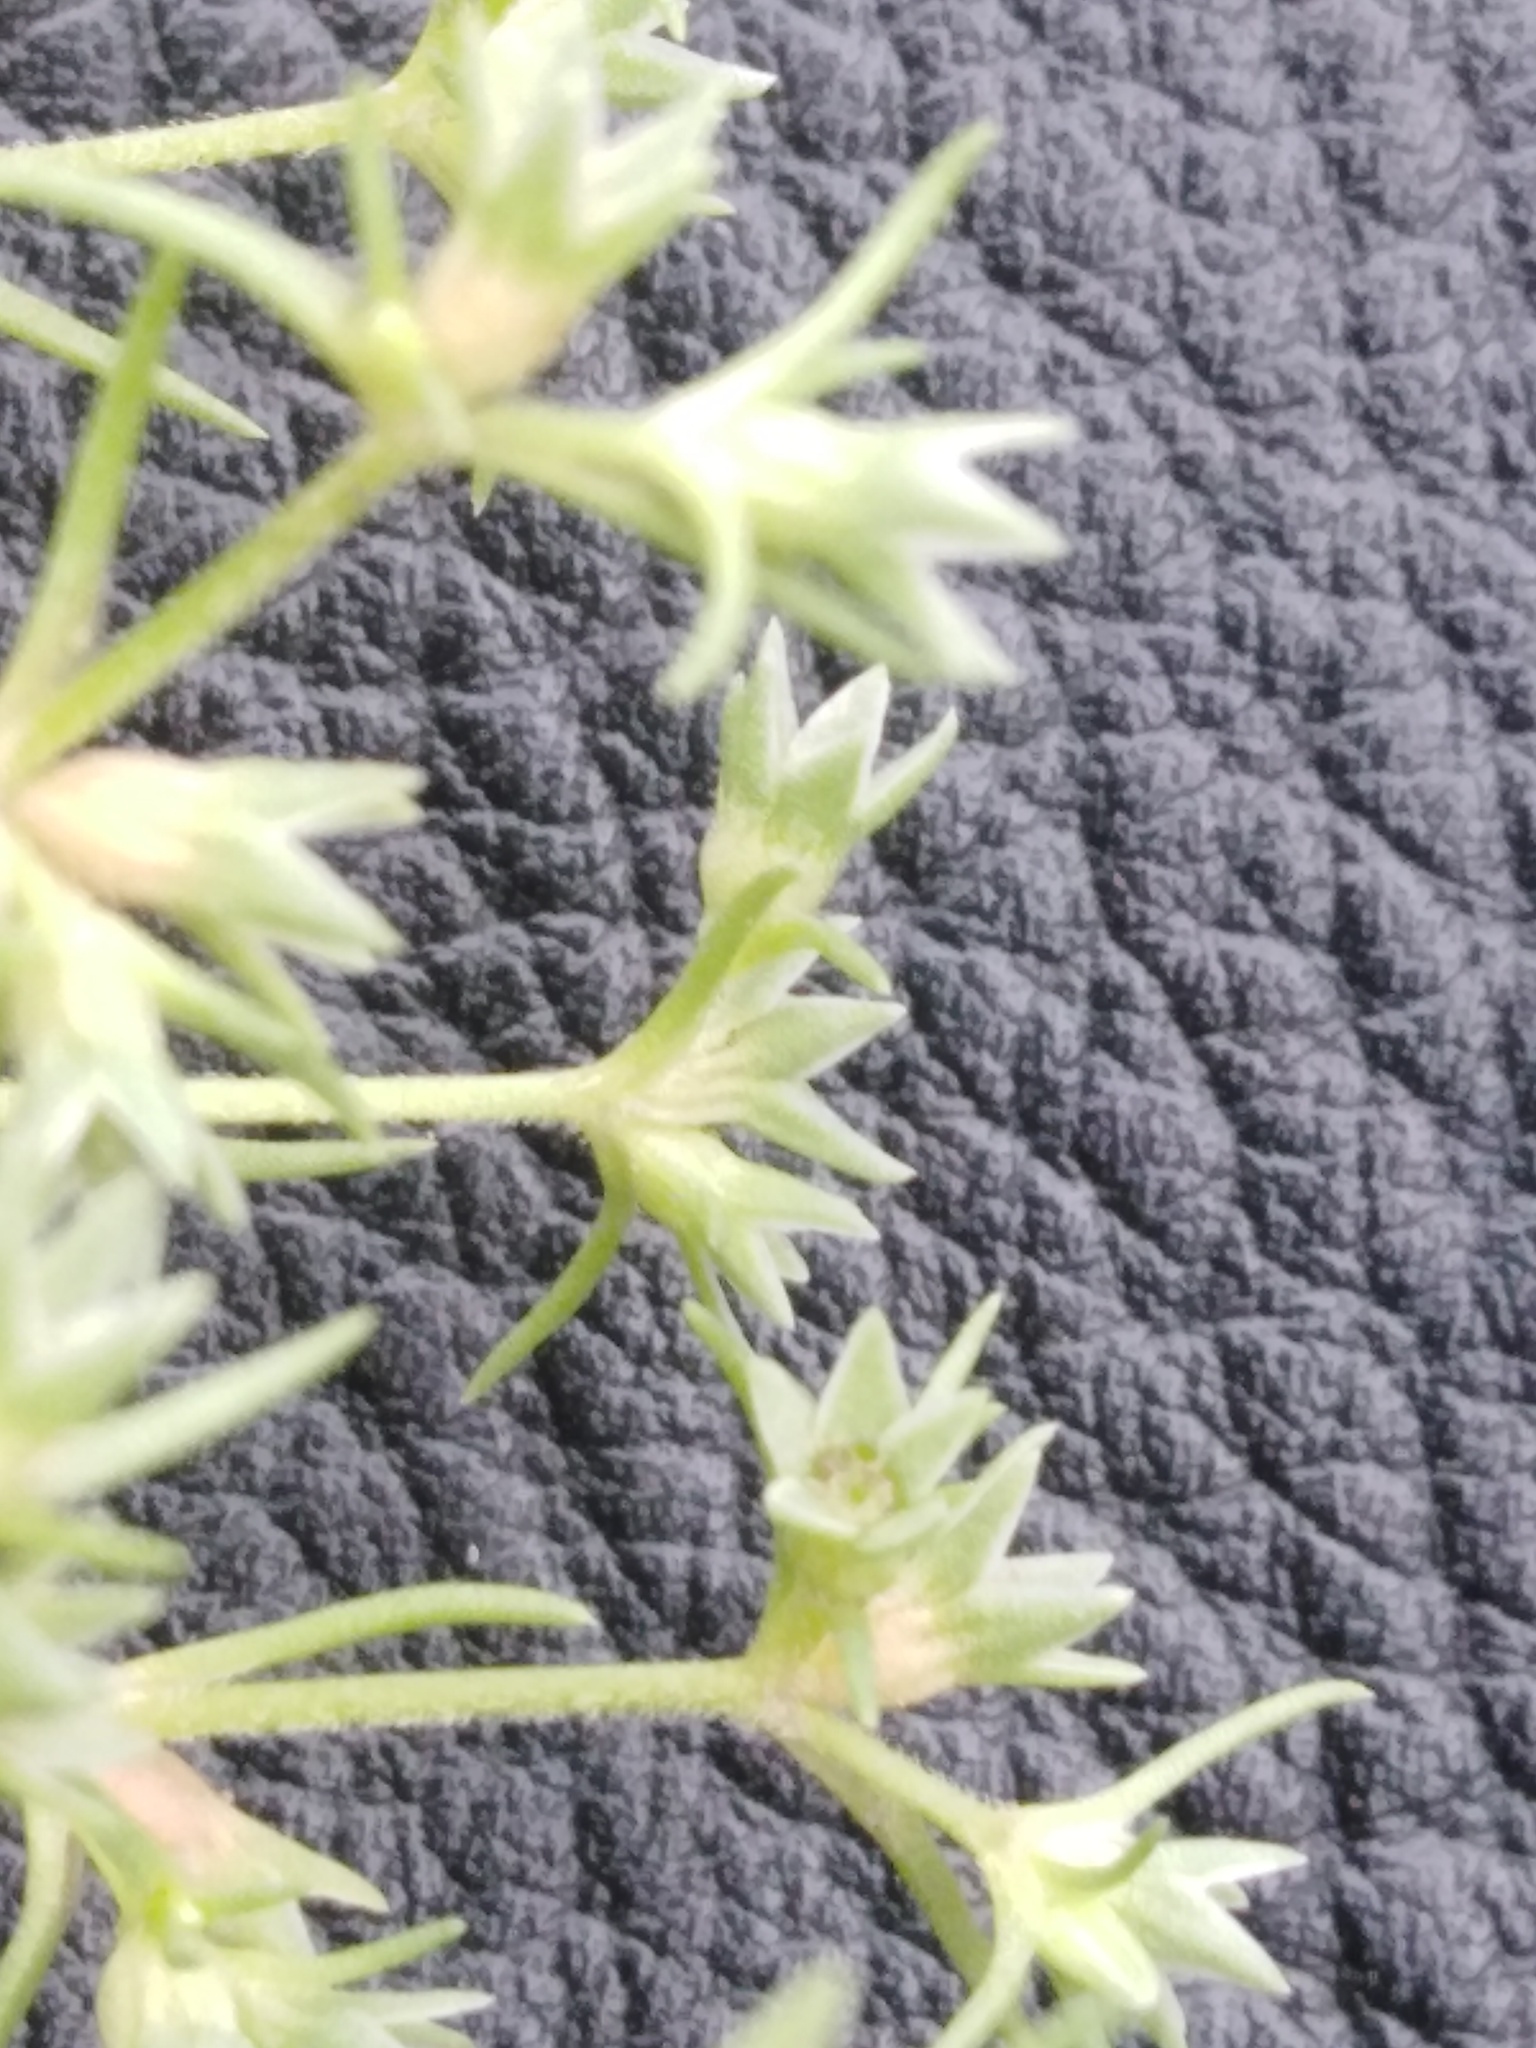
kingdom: Plantae
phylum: Tracheophyta
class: Magnoliopsida
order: Caryophyllales
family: Caryophyllaceae
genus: Scleranthus
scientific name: Scleranthus annuus
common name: Annual knawel
